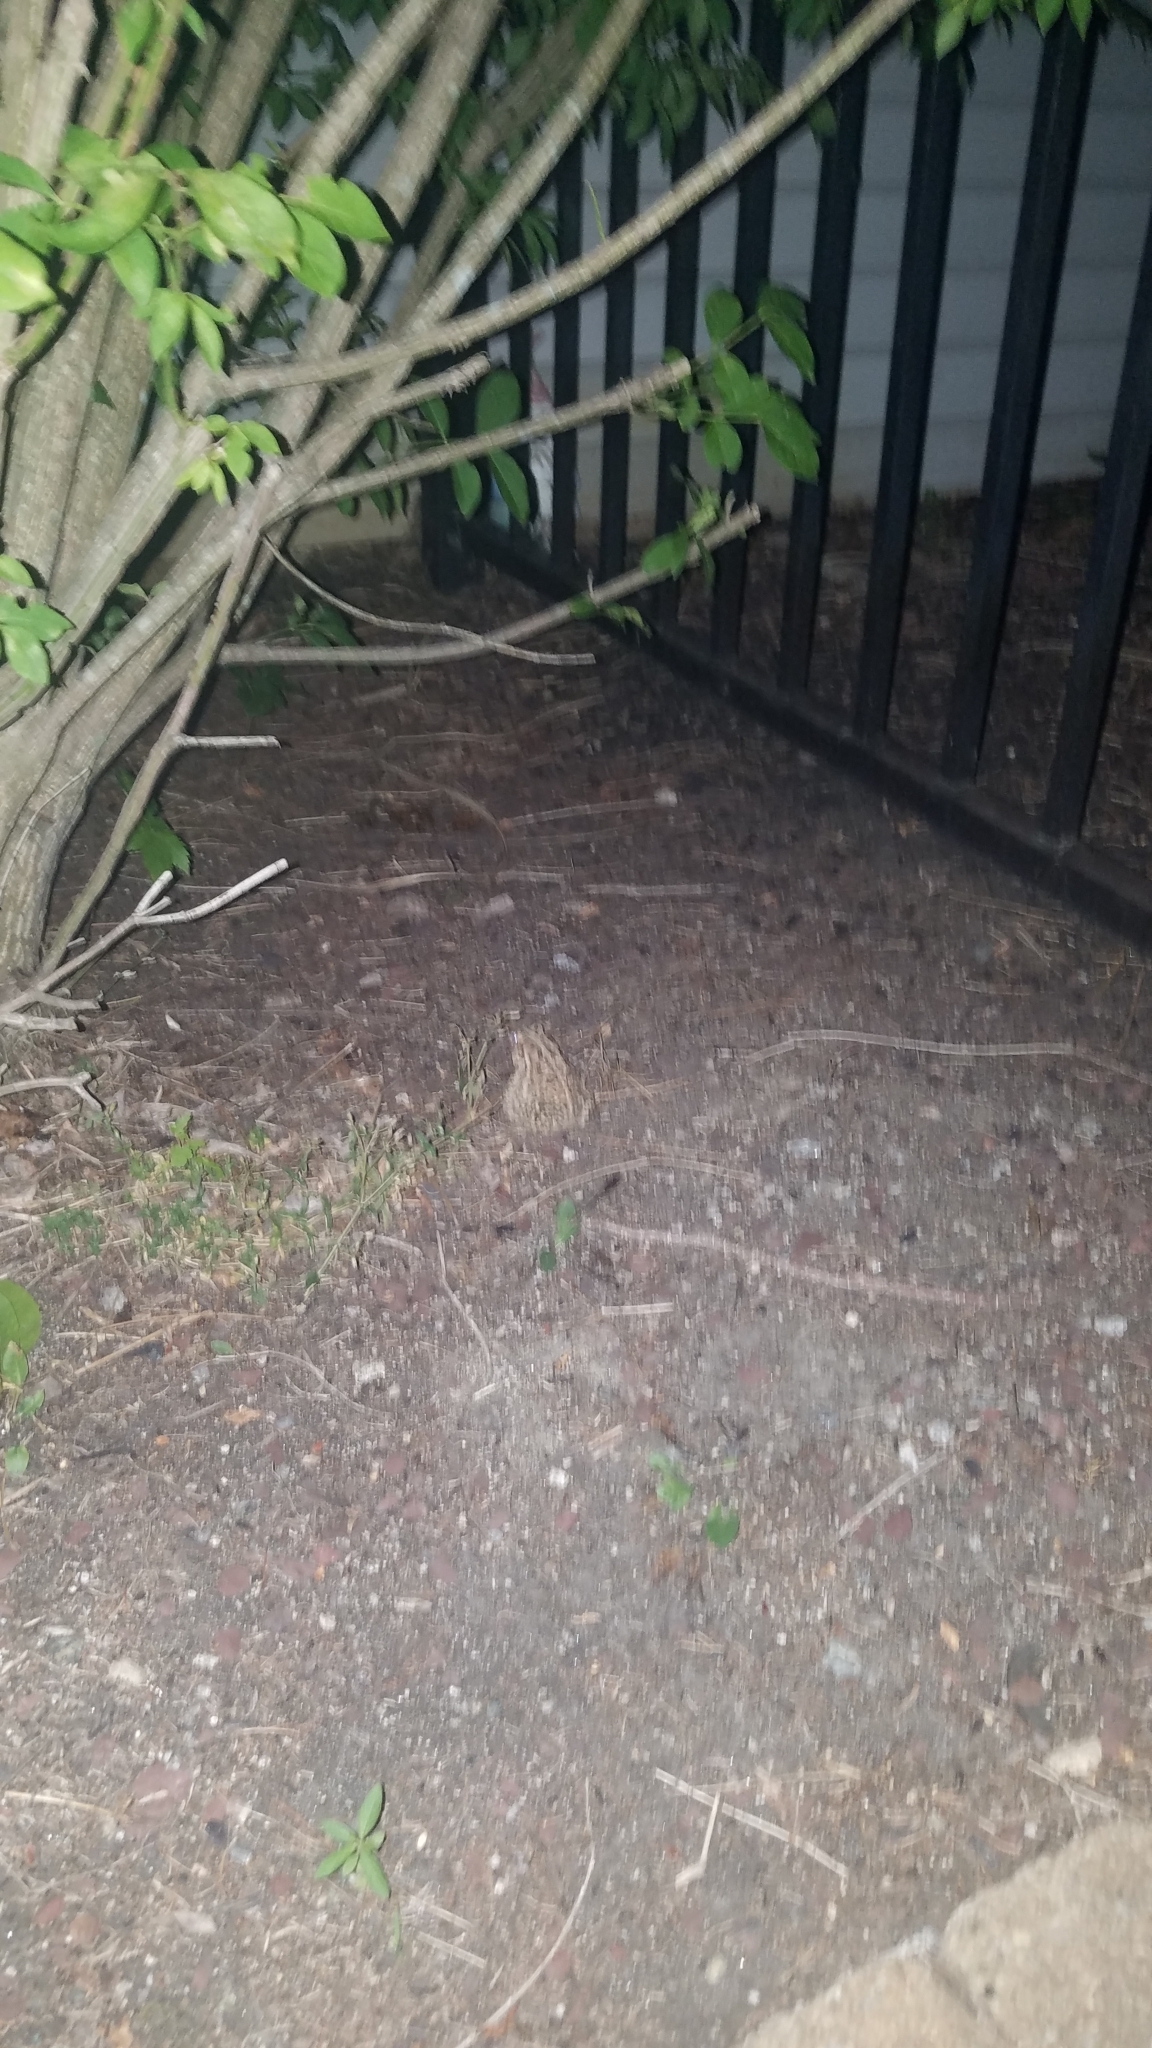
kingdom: Animalia
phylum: Chordata
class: Amphibia
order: Anura
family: Bufonidae
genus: Anaxyrus
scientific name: Anaxyrus americanus
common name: American toad
